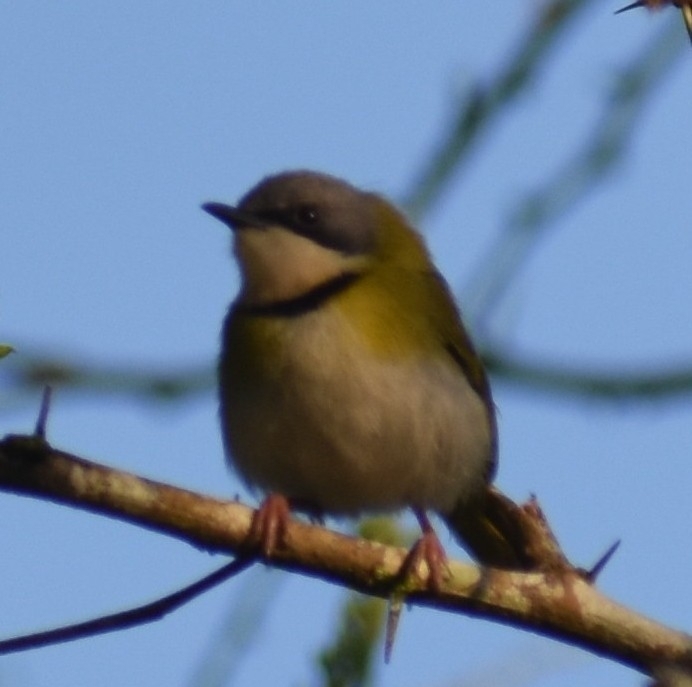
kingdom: Animalia
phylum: Chordata
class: Aves
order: Passeriformes
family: Cisticolidae
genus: Apalis
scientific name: Apalis ruddi
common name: Rudd's apalis
